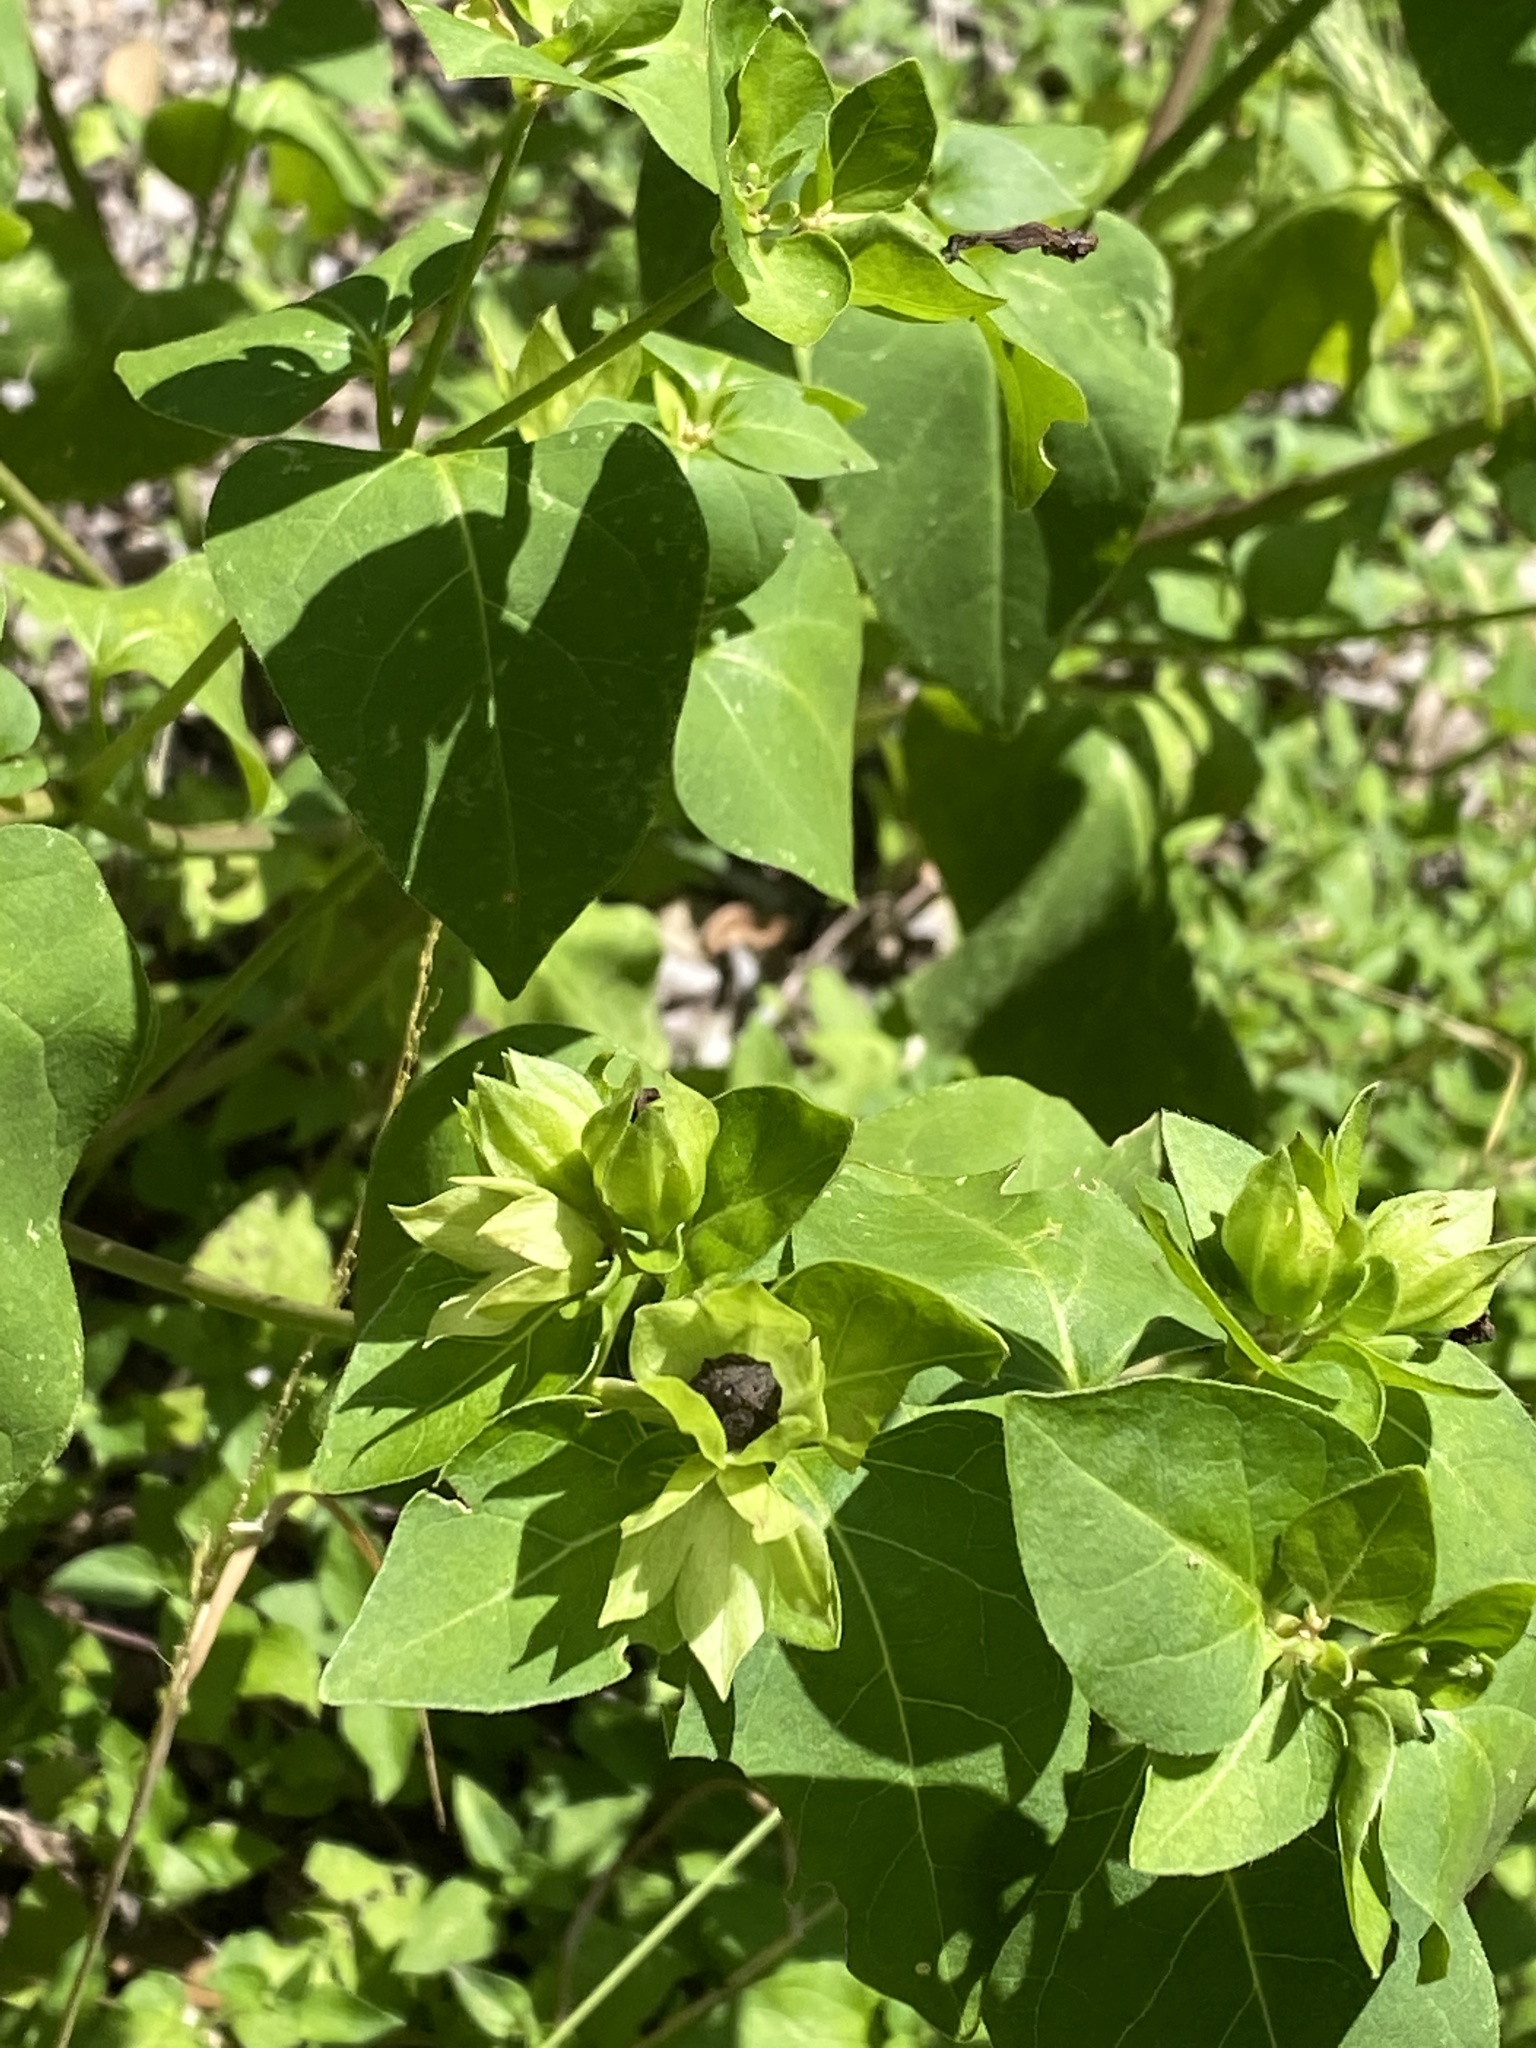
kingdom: Plantae
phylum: Tracheophyta
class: Magnoliopsida
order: Caryophyllales
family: Nyctaginaceae
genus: Mirabilis
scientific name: Mirabilis jalapa
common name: Marvel-of-peru
